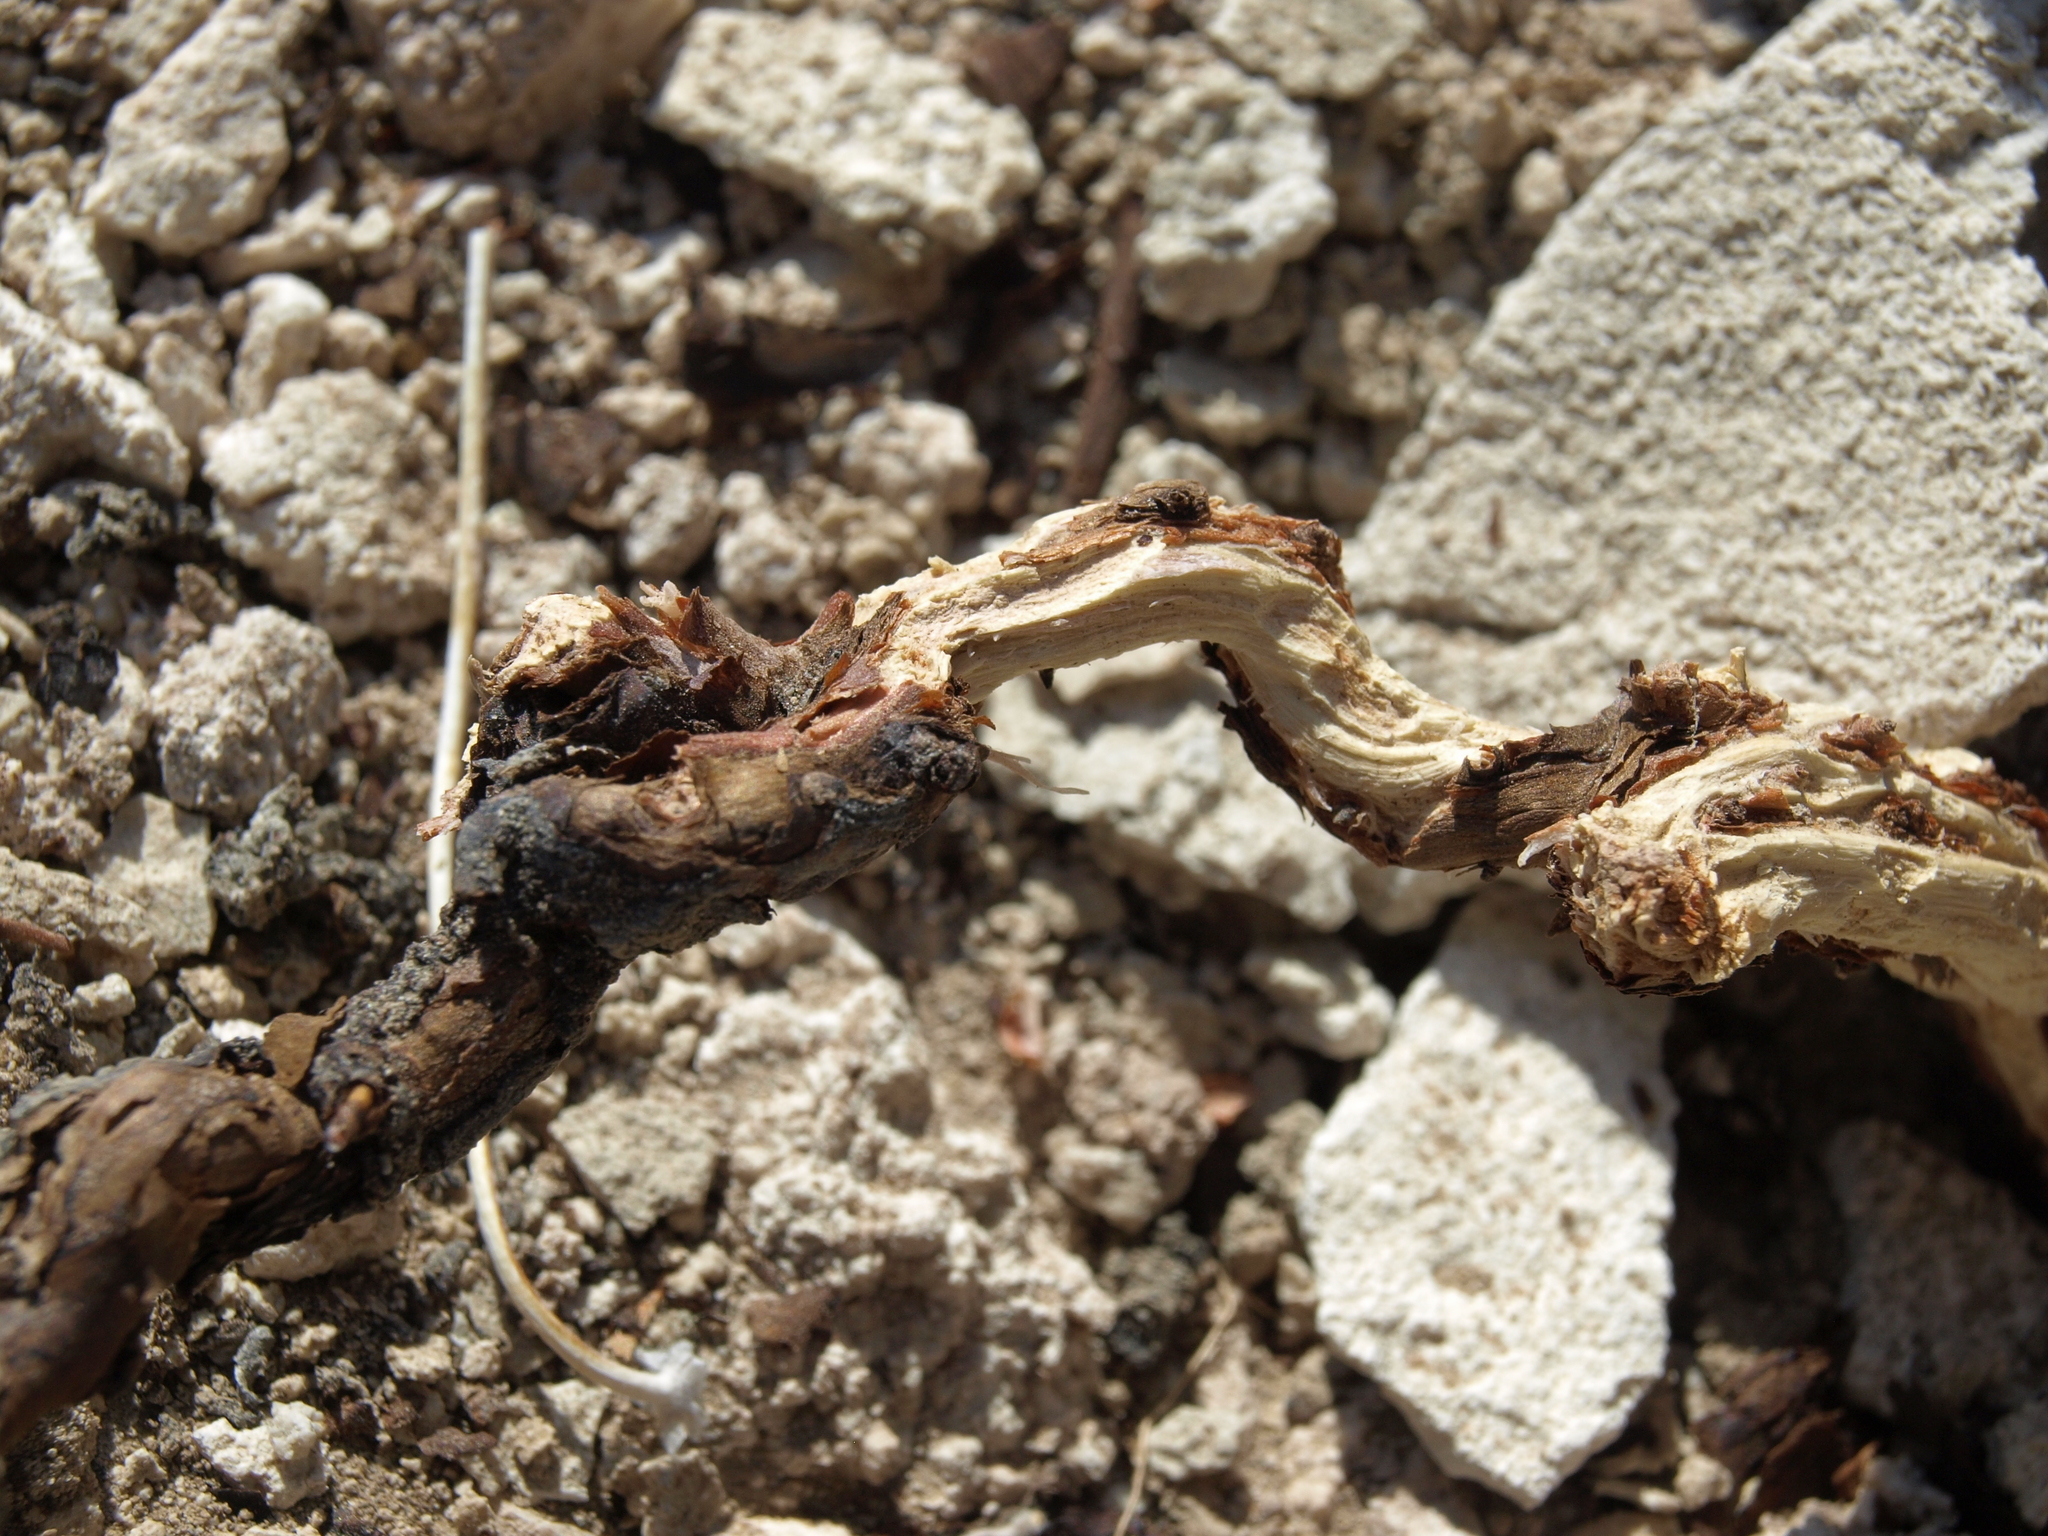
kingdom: Plantae
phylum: Tracheophyta
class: Magnoliopsida
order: Caryophyllales
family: Polygonaceae
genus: Eriogonum
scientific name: Eriogonum tiehmii
